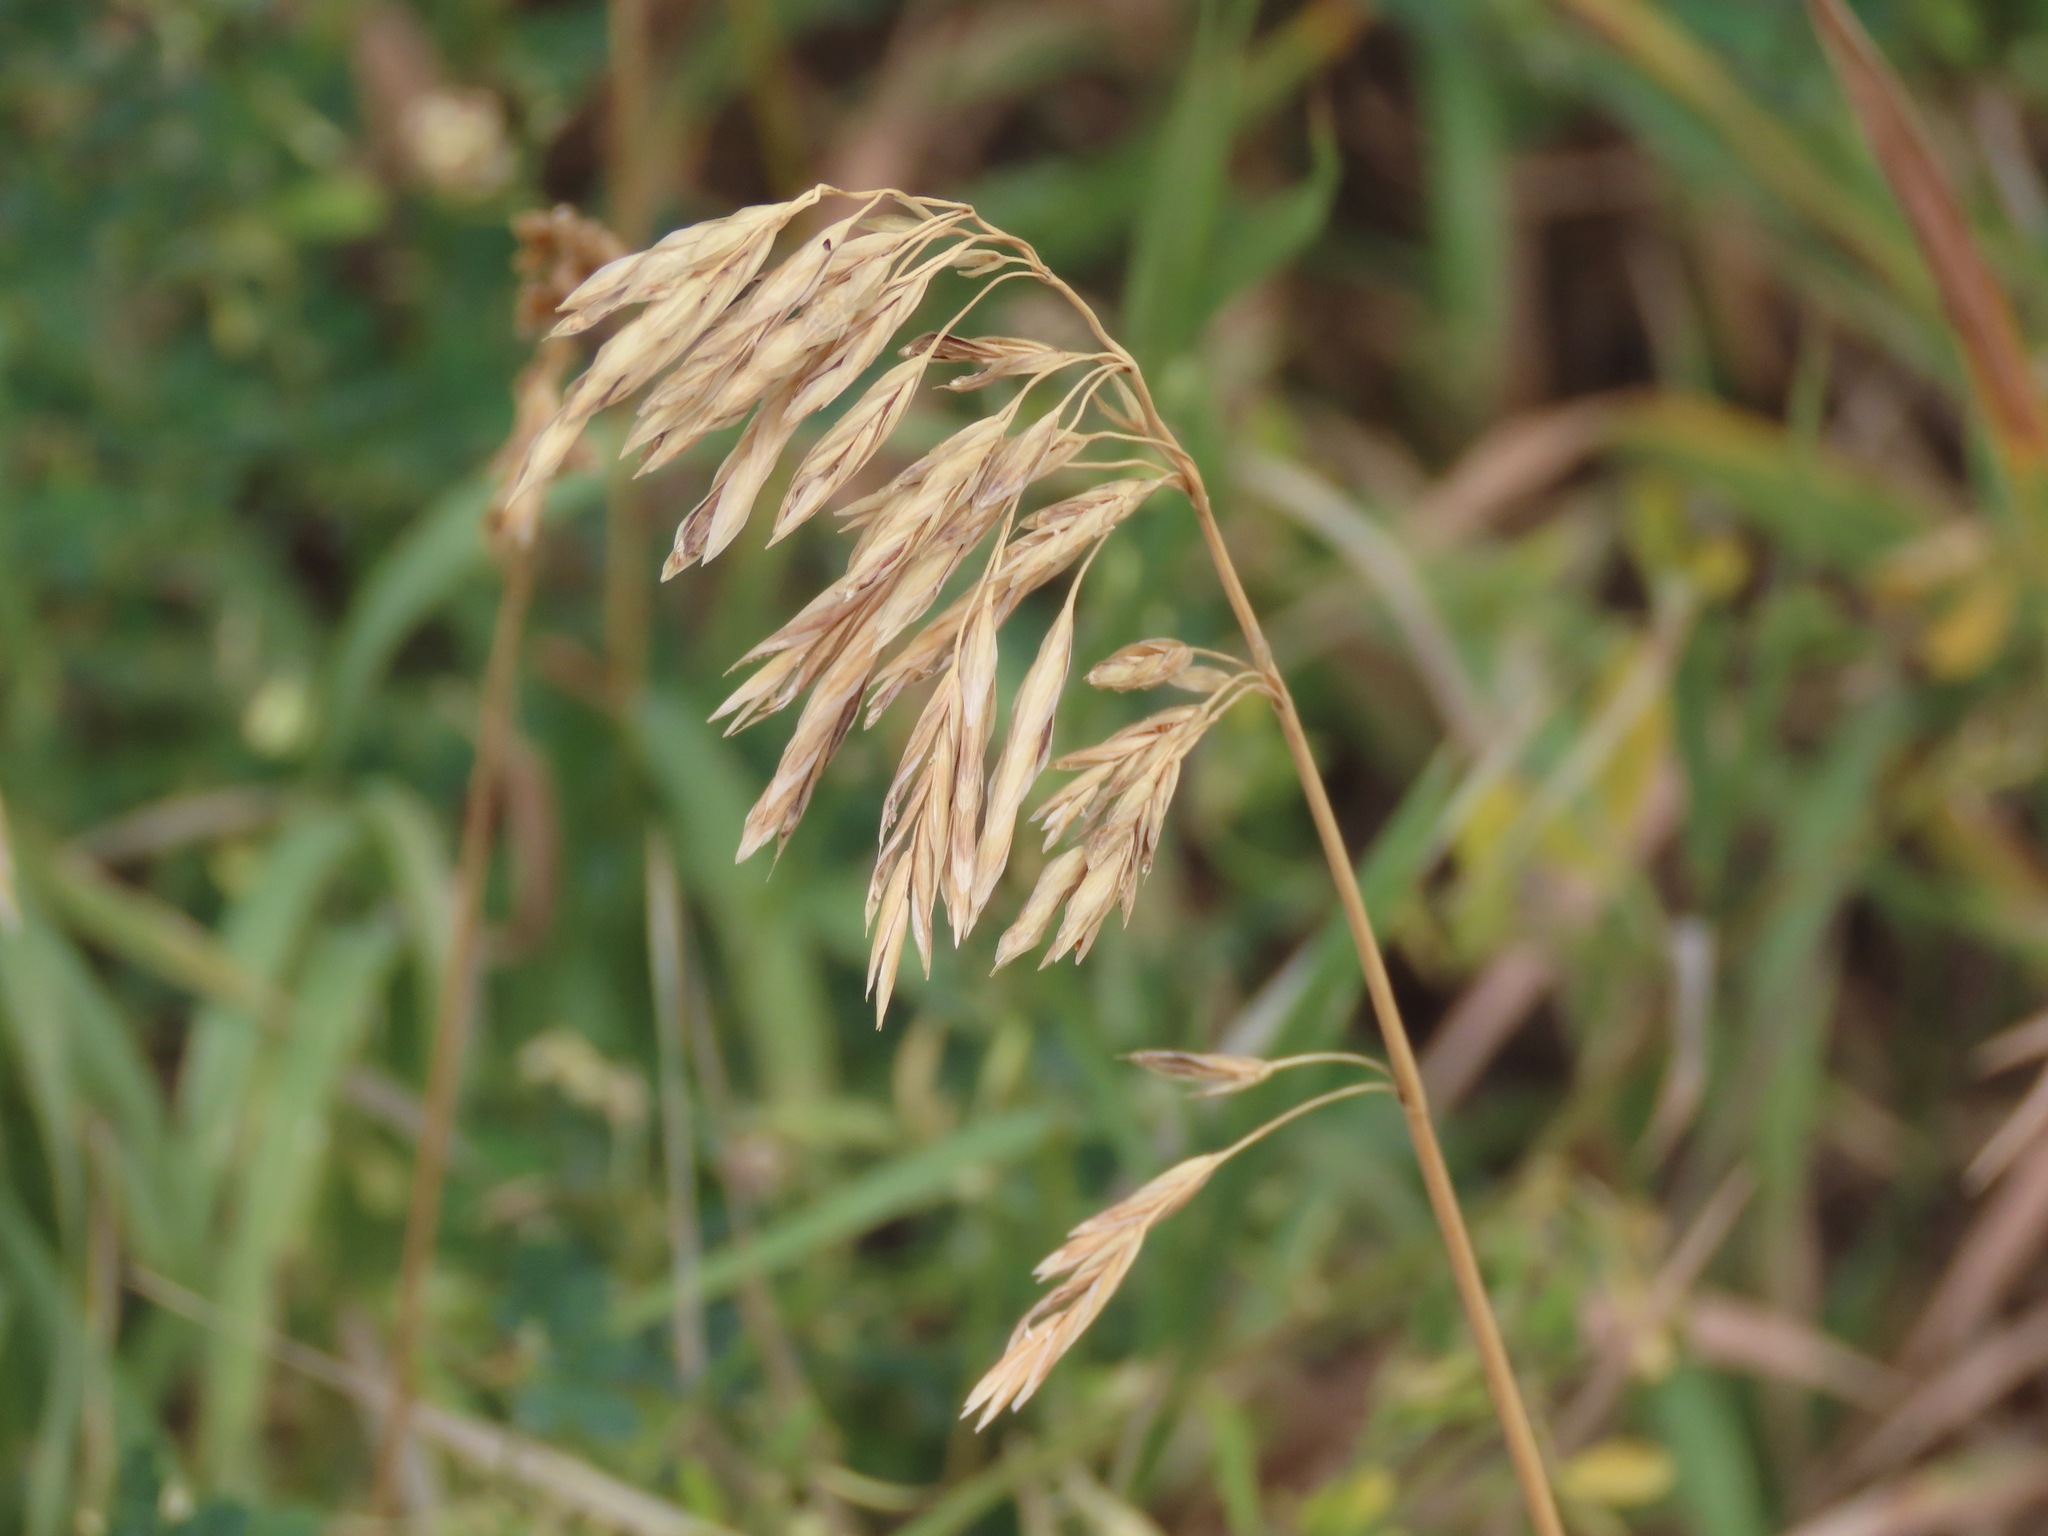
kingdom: Plantae
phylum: Tracheophyta
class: Liliopsida
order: Poales
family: Poaceae
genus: Bromus
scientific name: Bromus inermis
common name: Smooth brome
